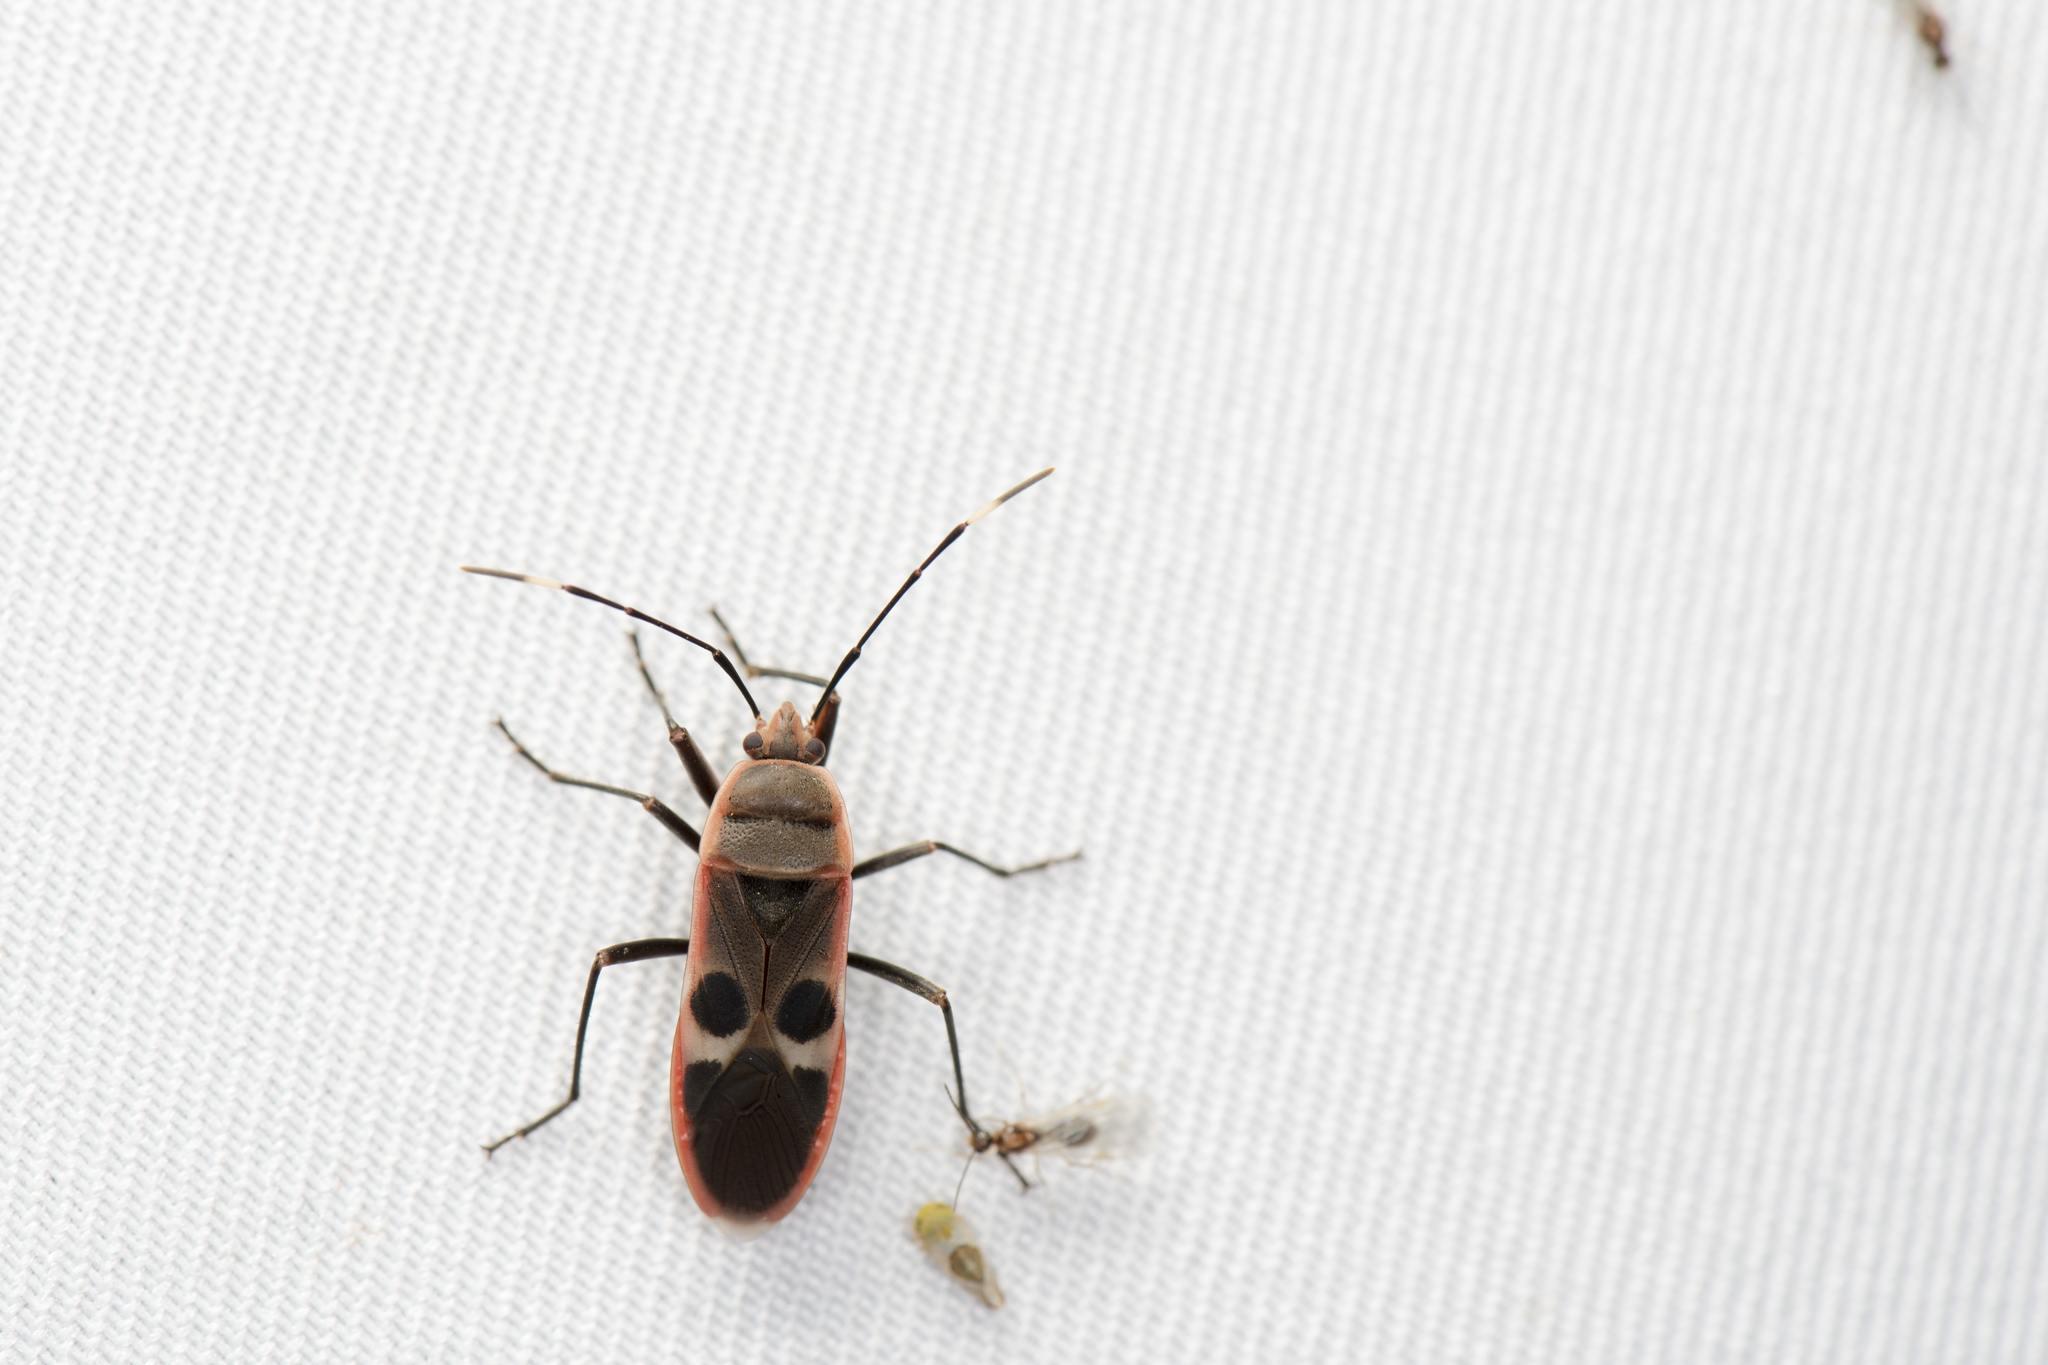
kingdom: Animalia
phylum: Arthropoda
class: Insecta
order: Hemiptera
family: Largidae
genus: Physopelta
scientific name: Physopelta gutta
